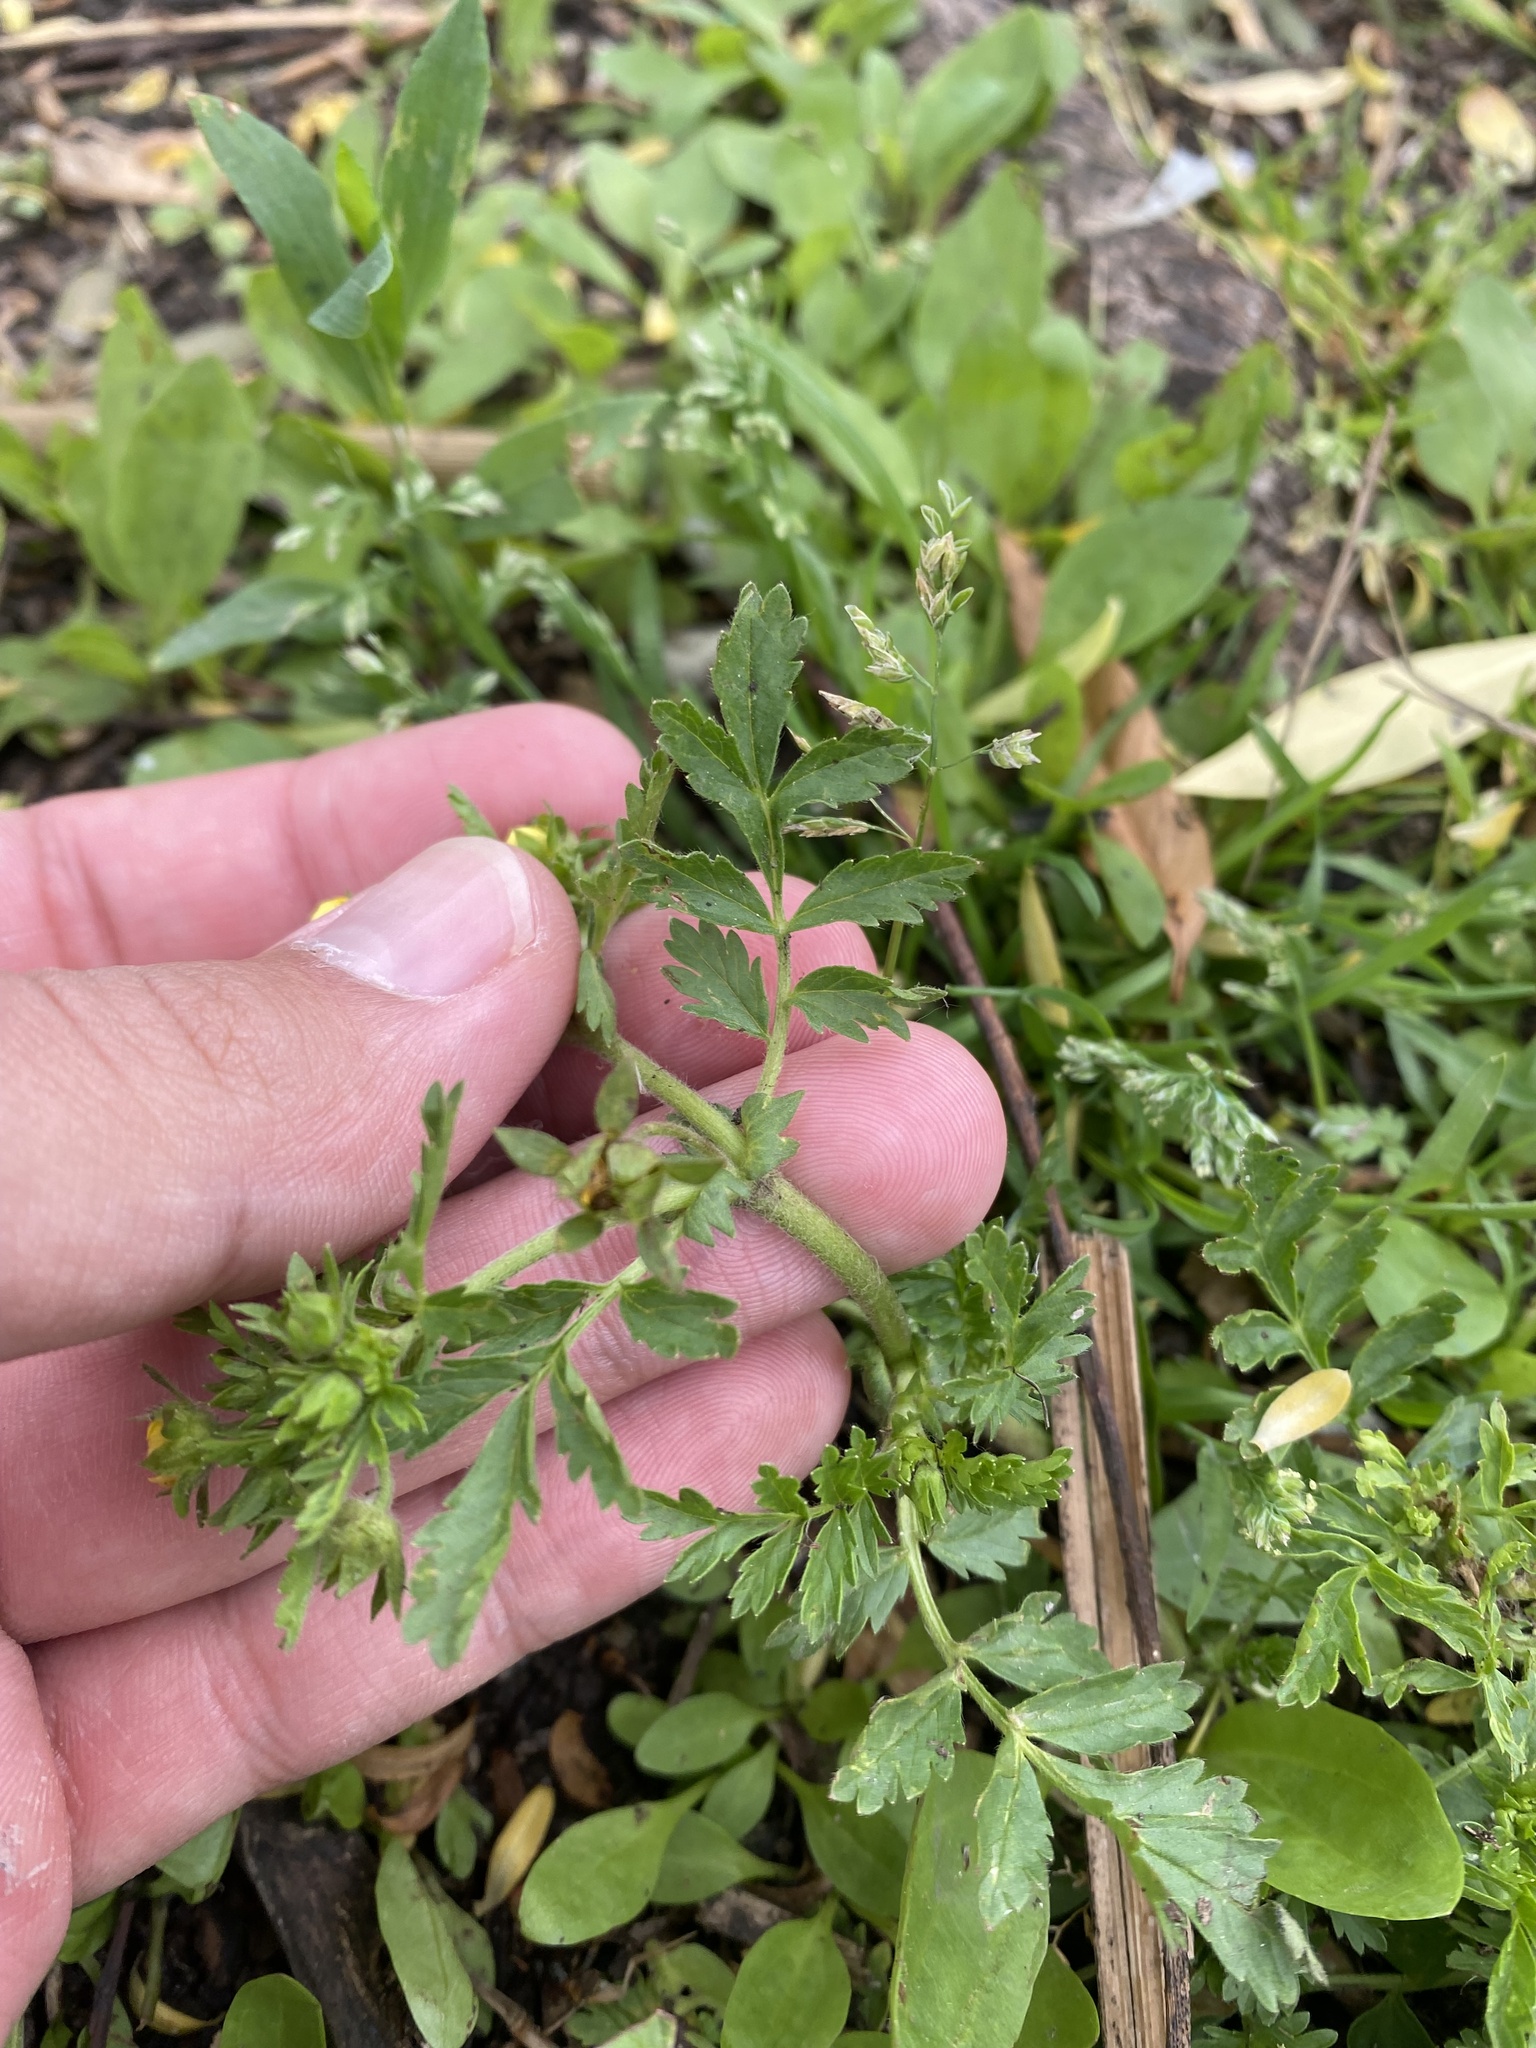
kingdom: Plantae
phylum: Tracheophyta
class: Magnoliopsida
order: Rosales
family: Rosaceae
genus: Potentilla
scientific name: Potentilla supina
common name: Prostrate cinquefoil
